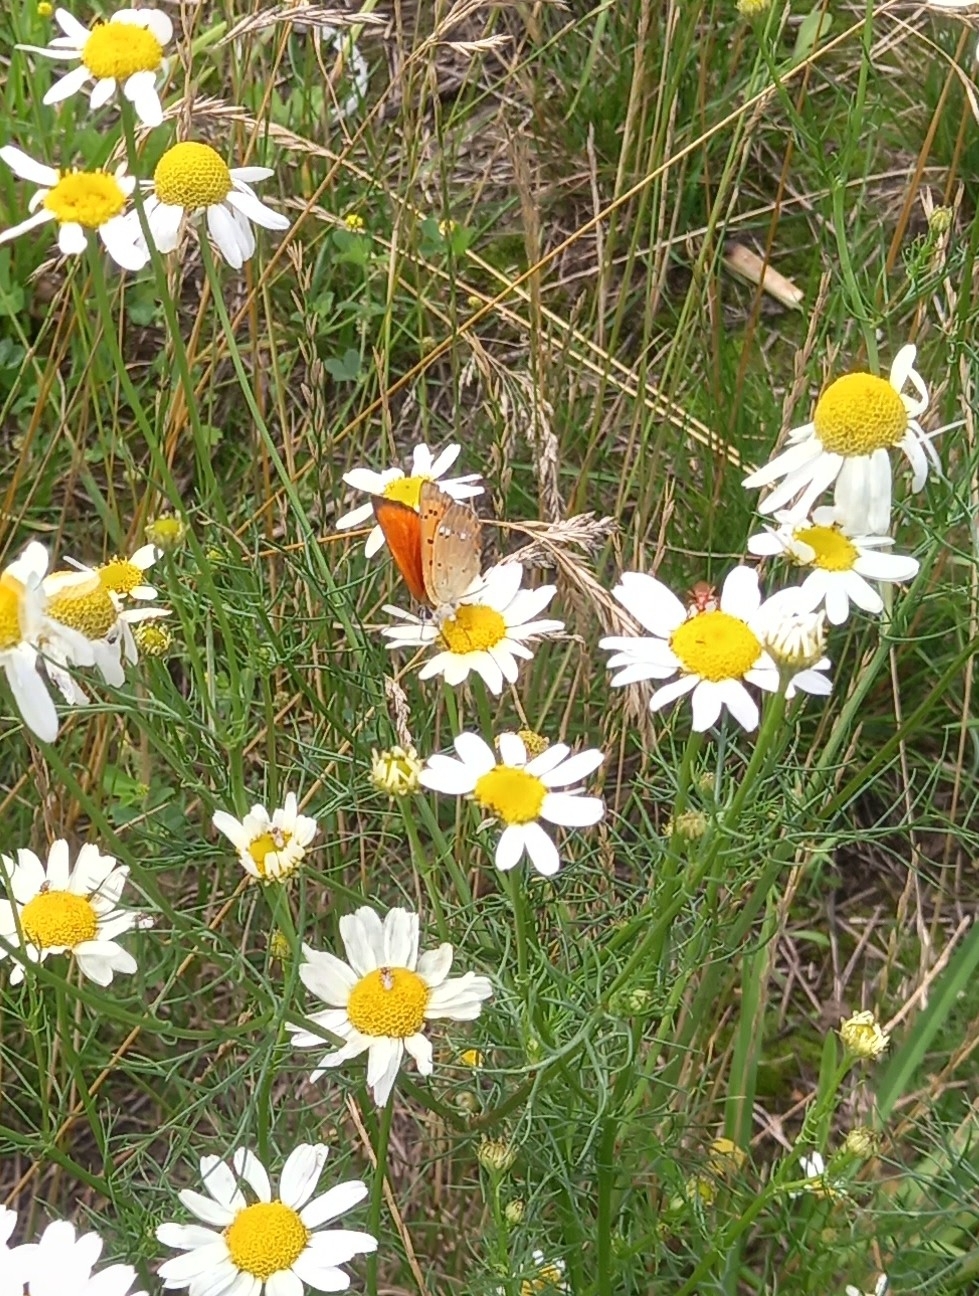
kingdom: Animalia
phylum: Arthropoda
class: Insecta
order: Lepidoptera
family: Lycaenidae
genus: Lycaena
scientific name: Lycaena virgaureae
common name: Scarce copper
